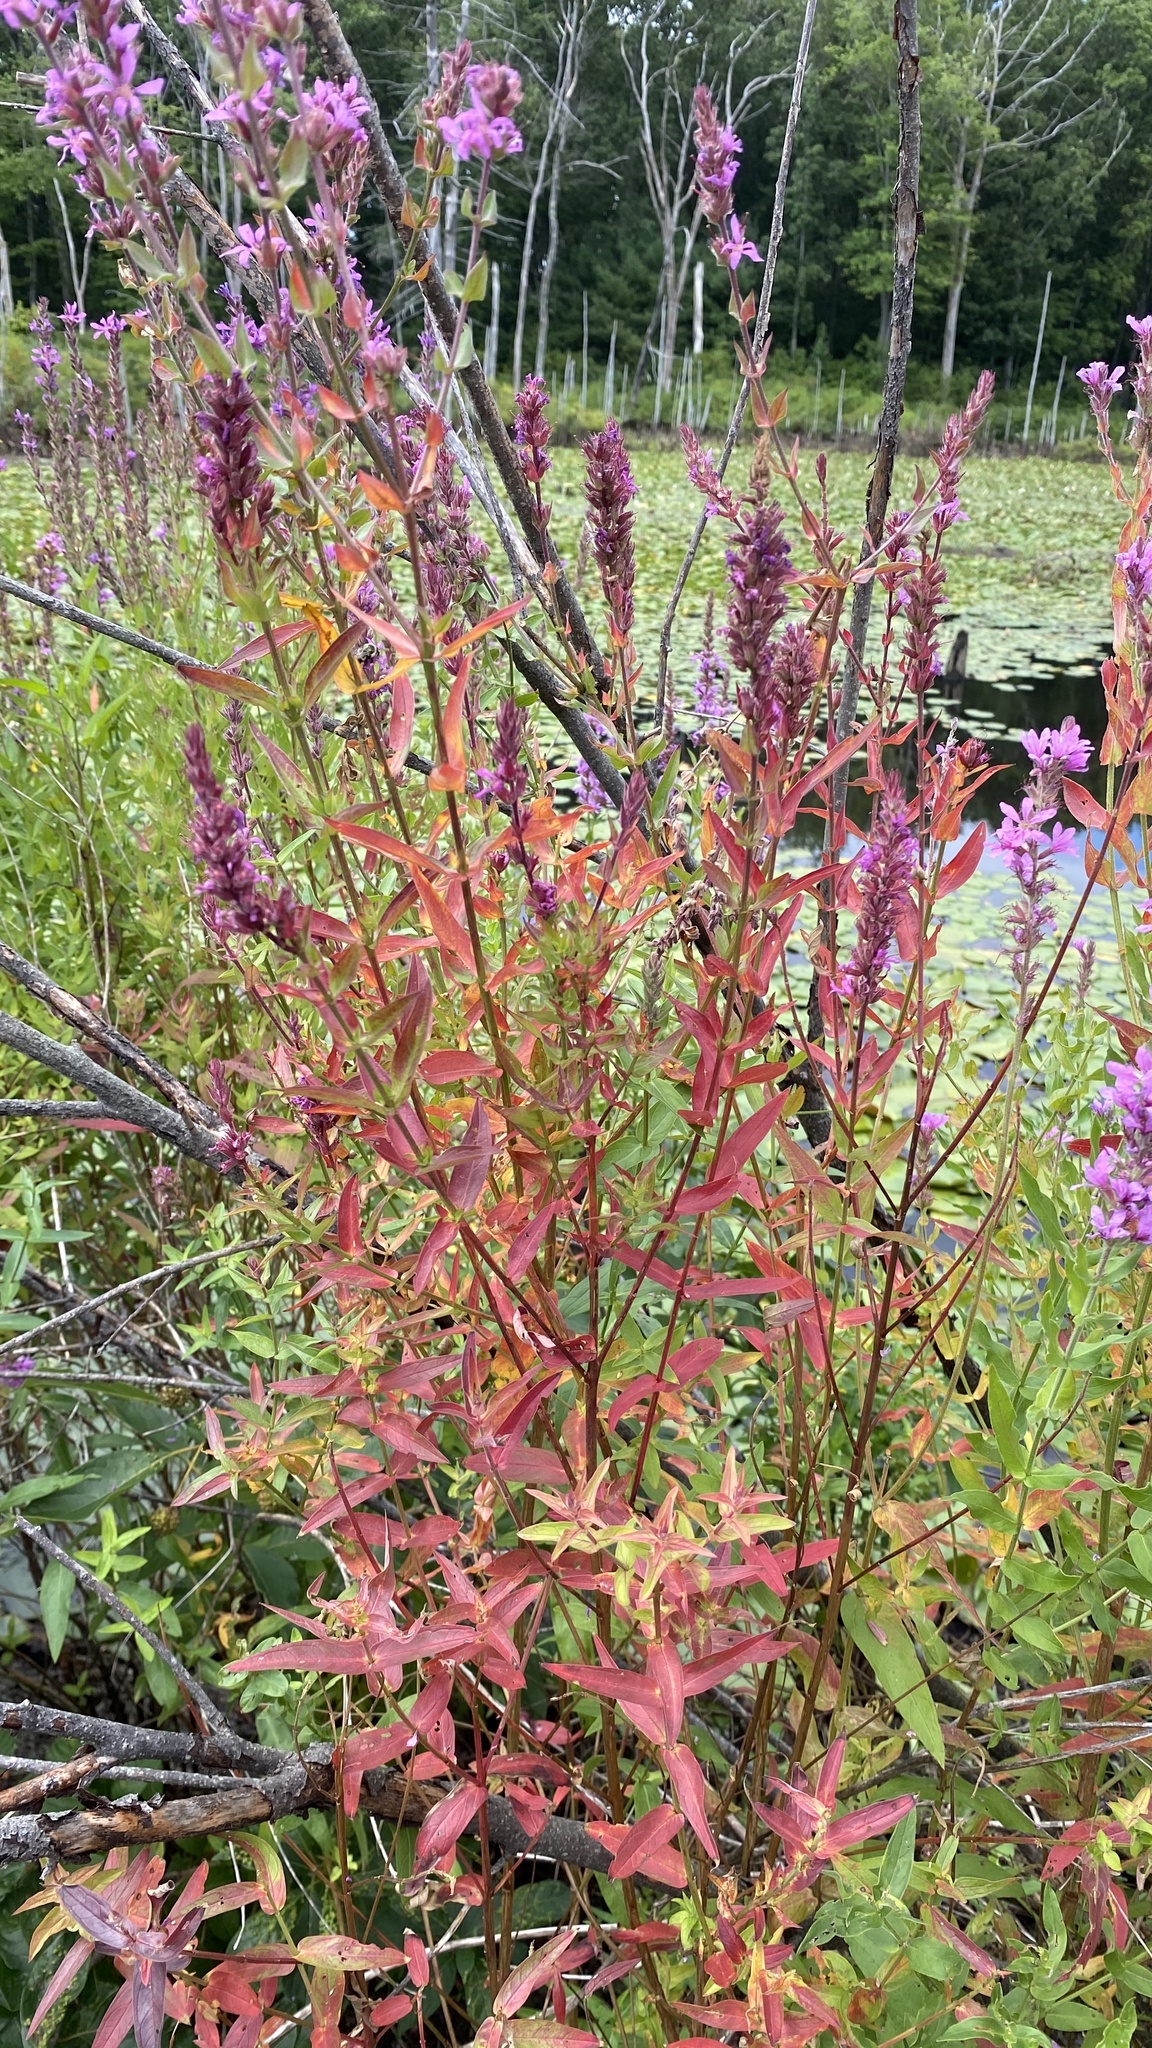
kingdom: Plantae
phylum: Tracheophyta
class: Magnoliopsida
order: Myrtales
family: Lythraceae
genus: Lythrum
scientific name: Lythrum salicaria
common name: Purple loosestrife
